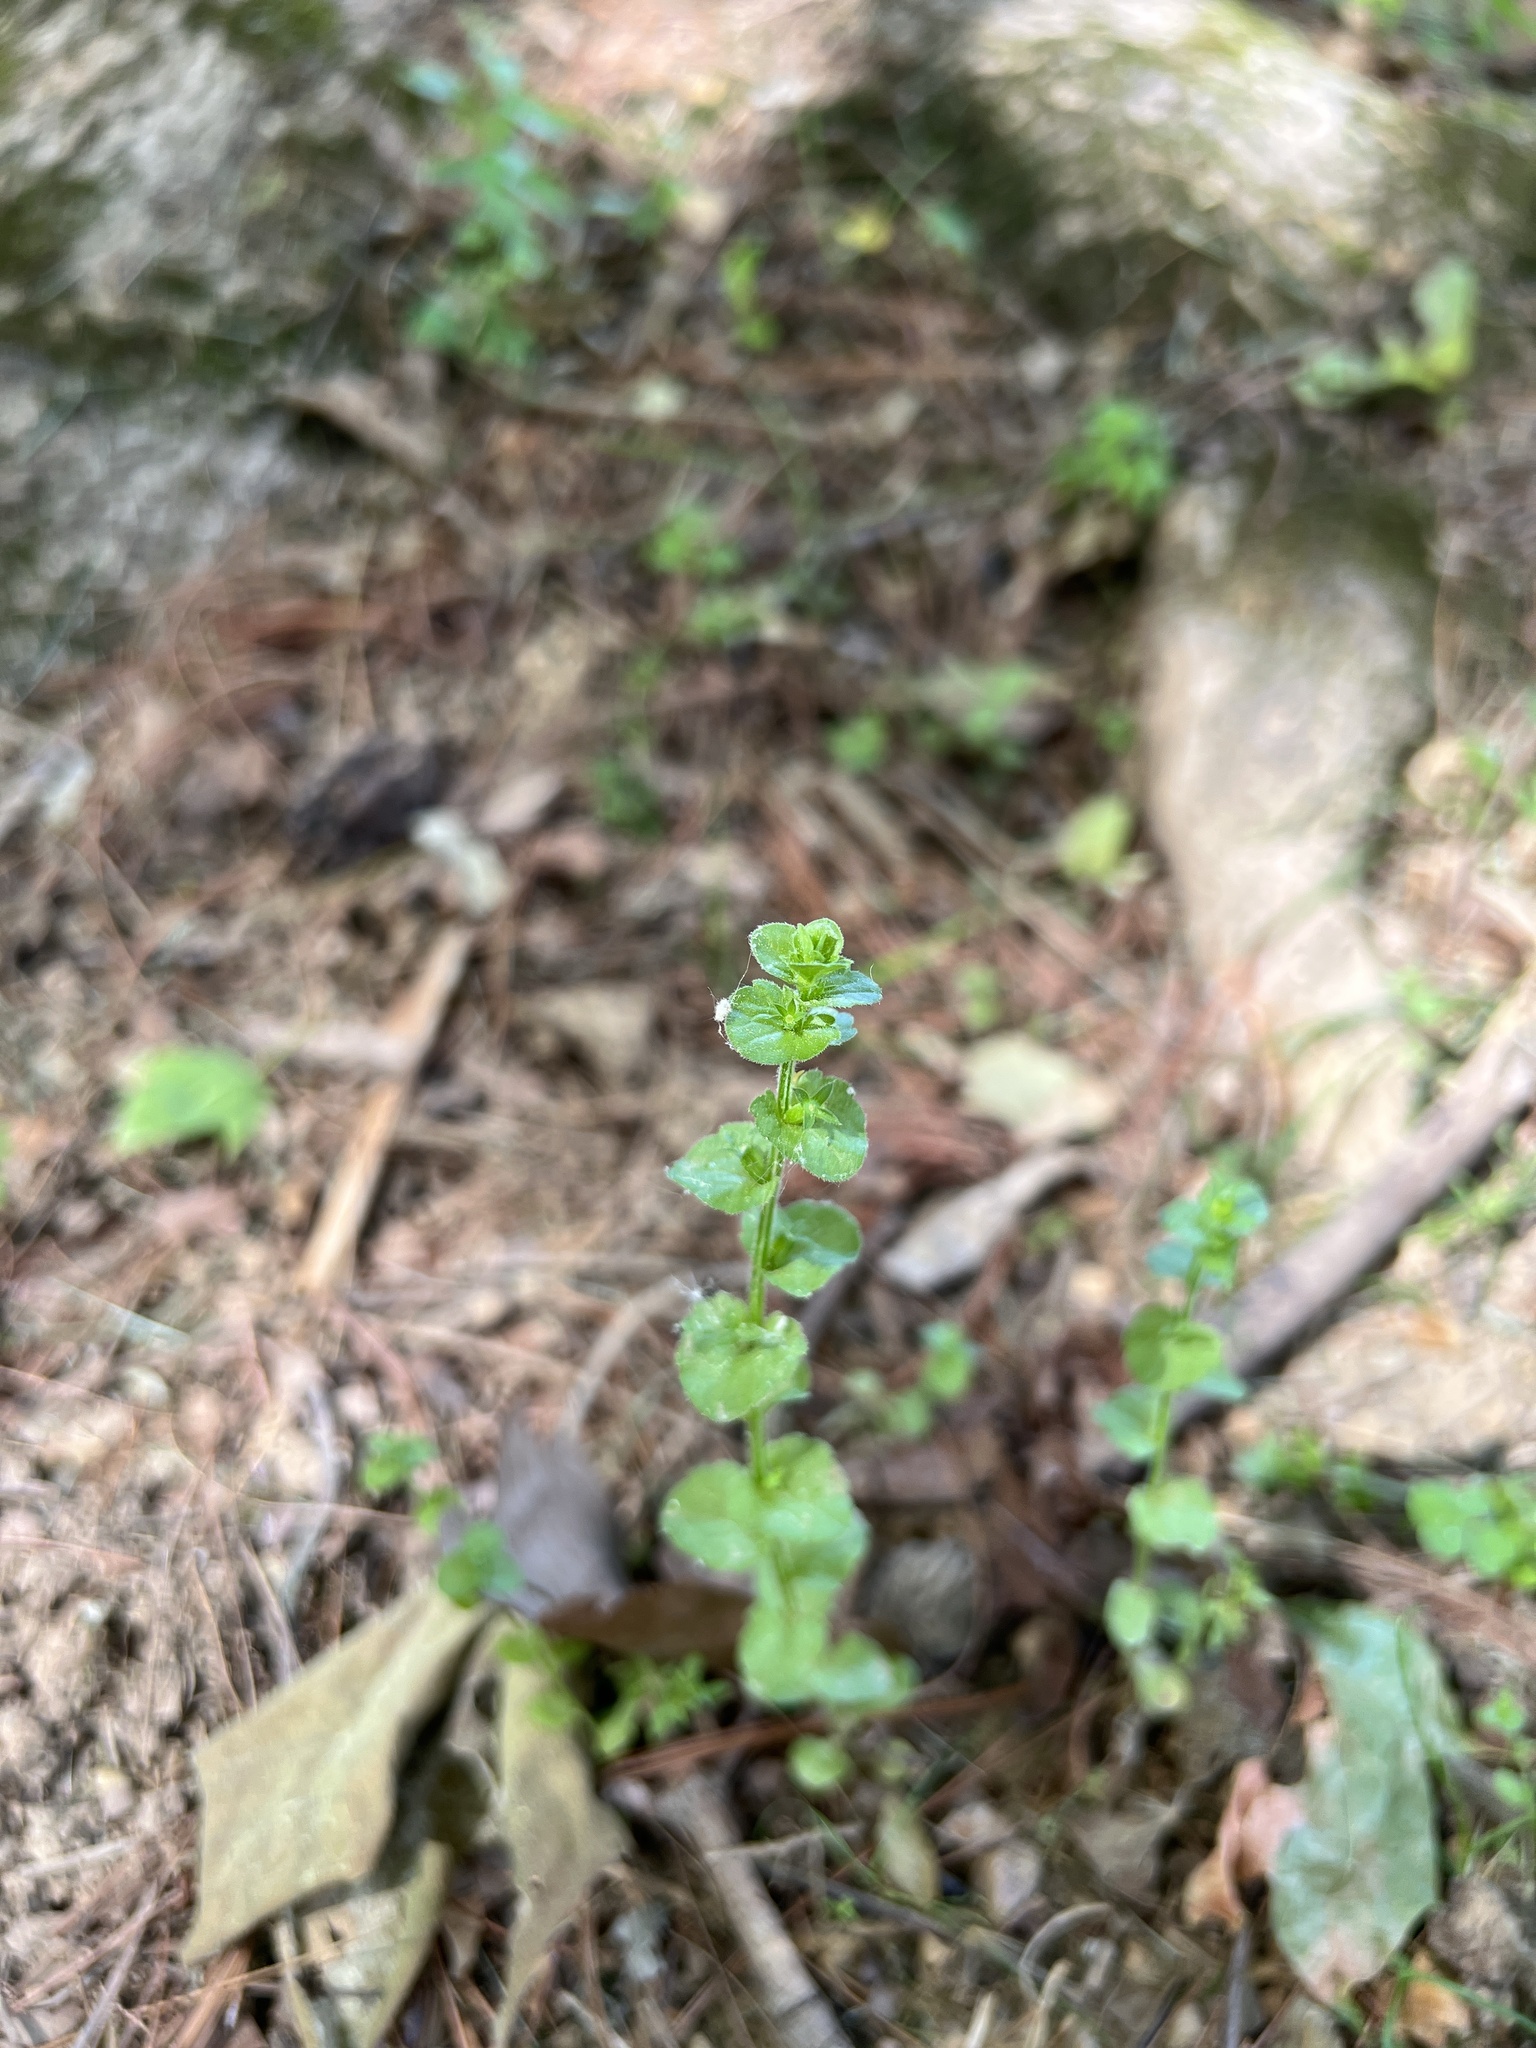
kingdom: Plantae
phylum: Tracheophyta
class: Magnoliopsida
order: Asterales
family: Campanulaceae
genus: Triodanis
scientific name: Triodanis perfoliata
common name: Clasping venus' looking-glass
